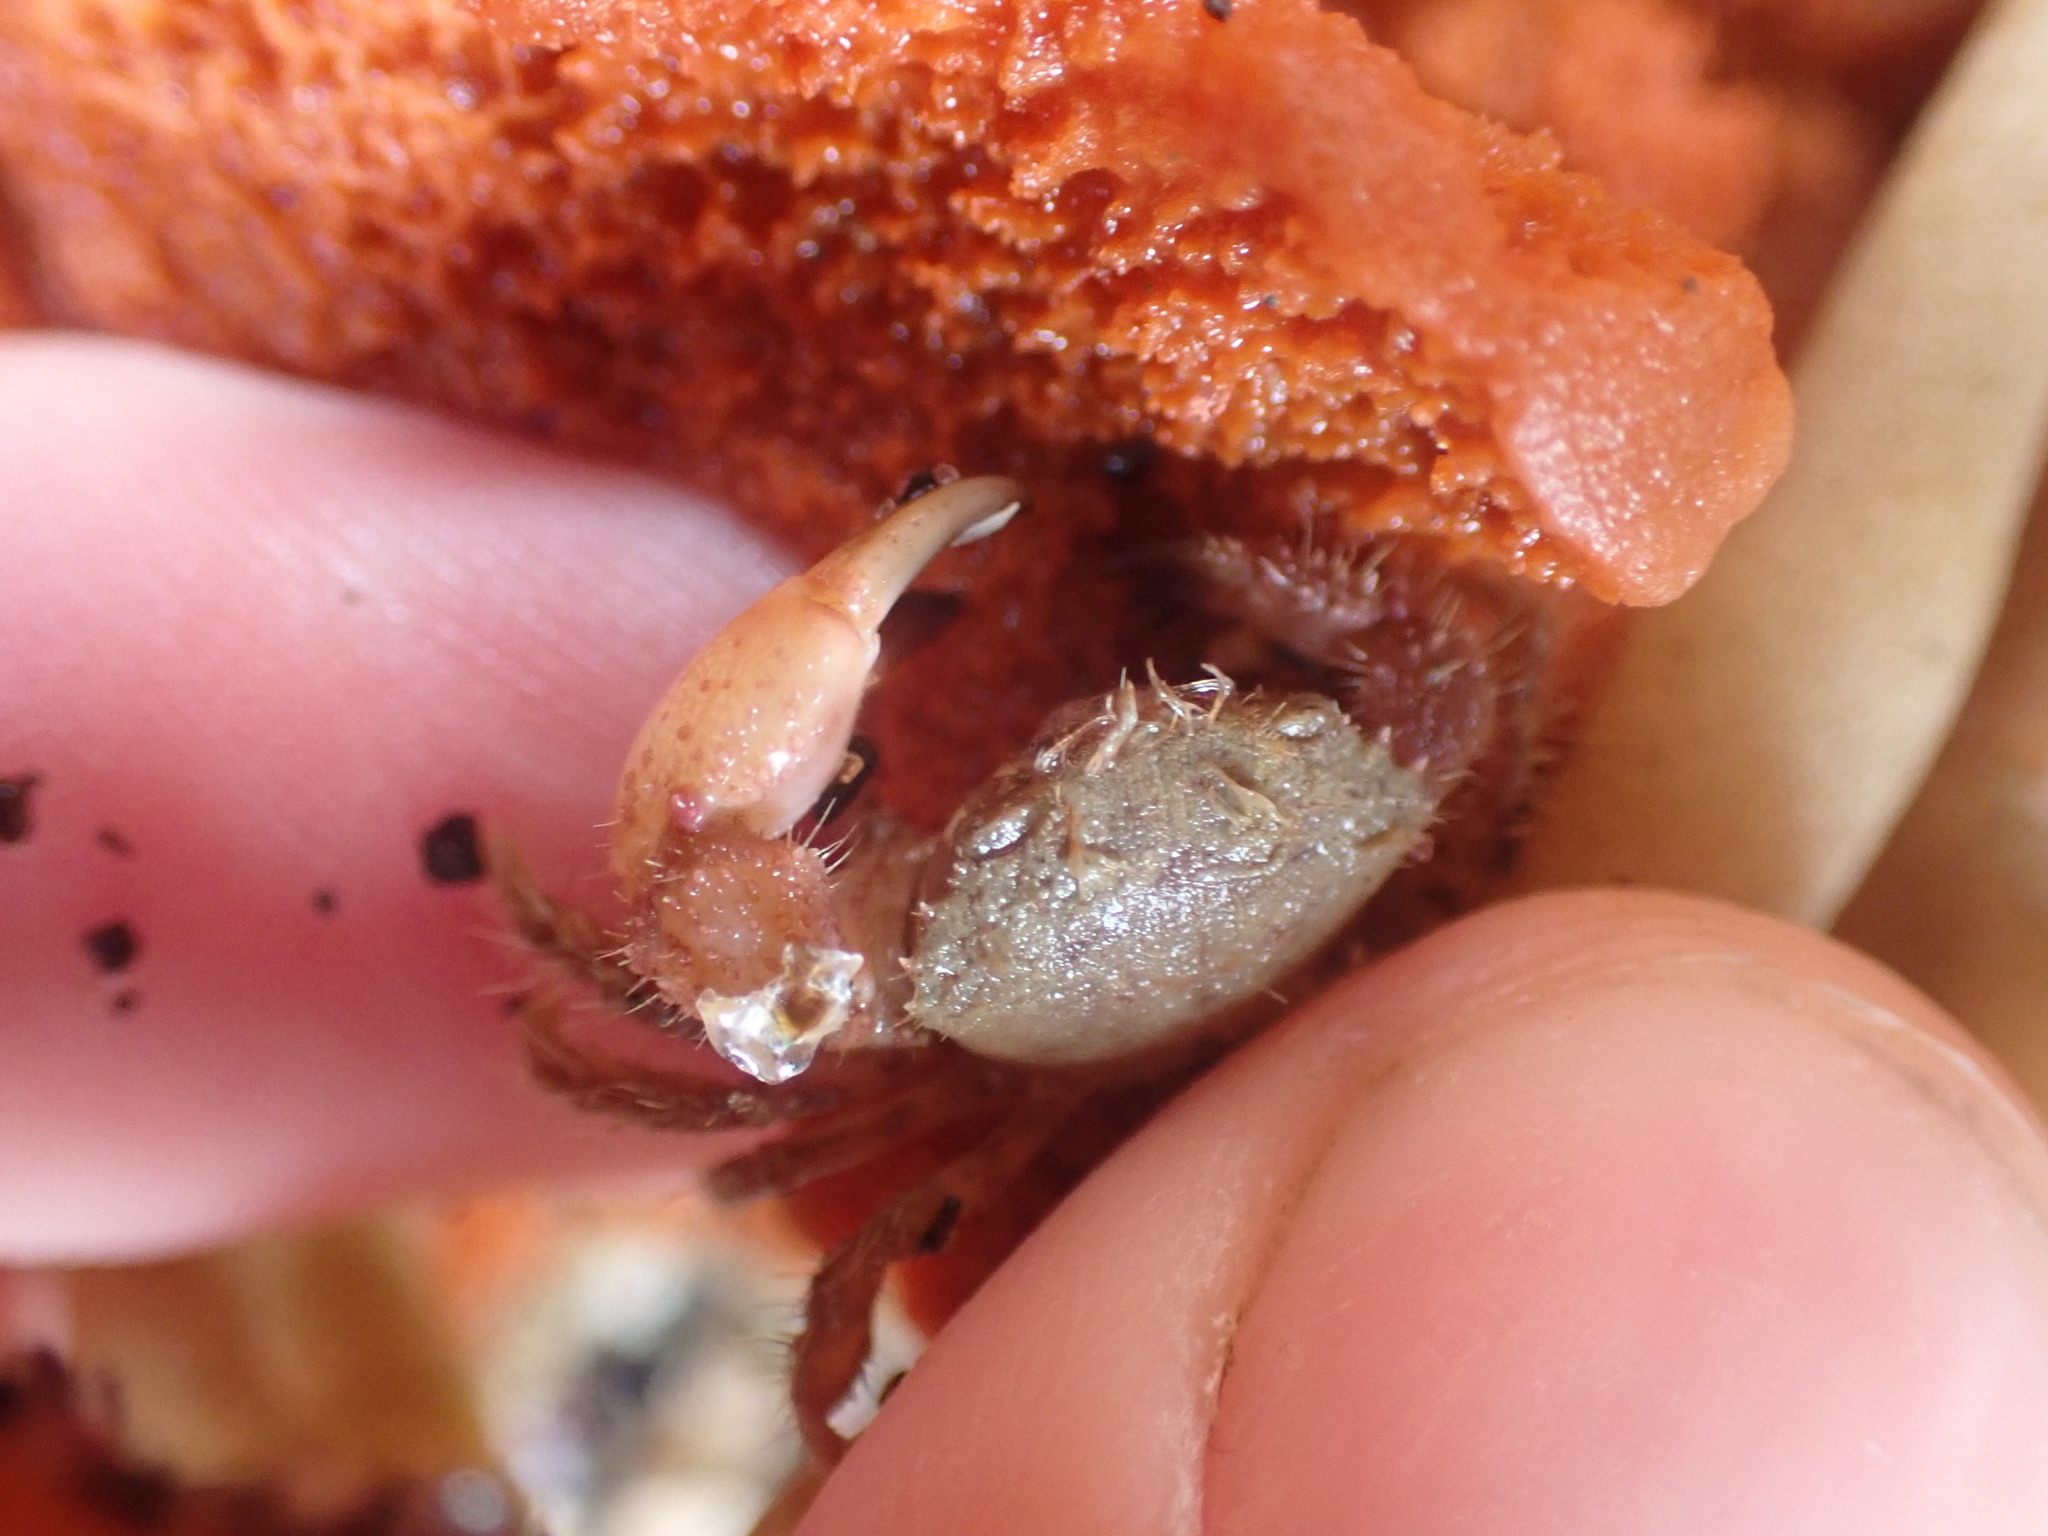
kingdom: Animalia
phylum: Arthropoda
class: Malacostraca
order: Decapoda
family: Pilumnidae
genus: Pilumnus
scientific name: Pilumnus novaezealandiae
